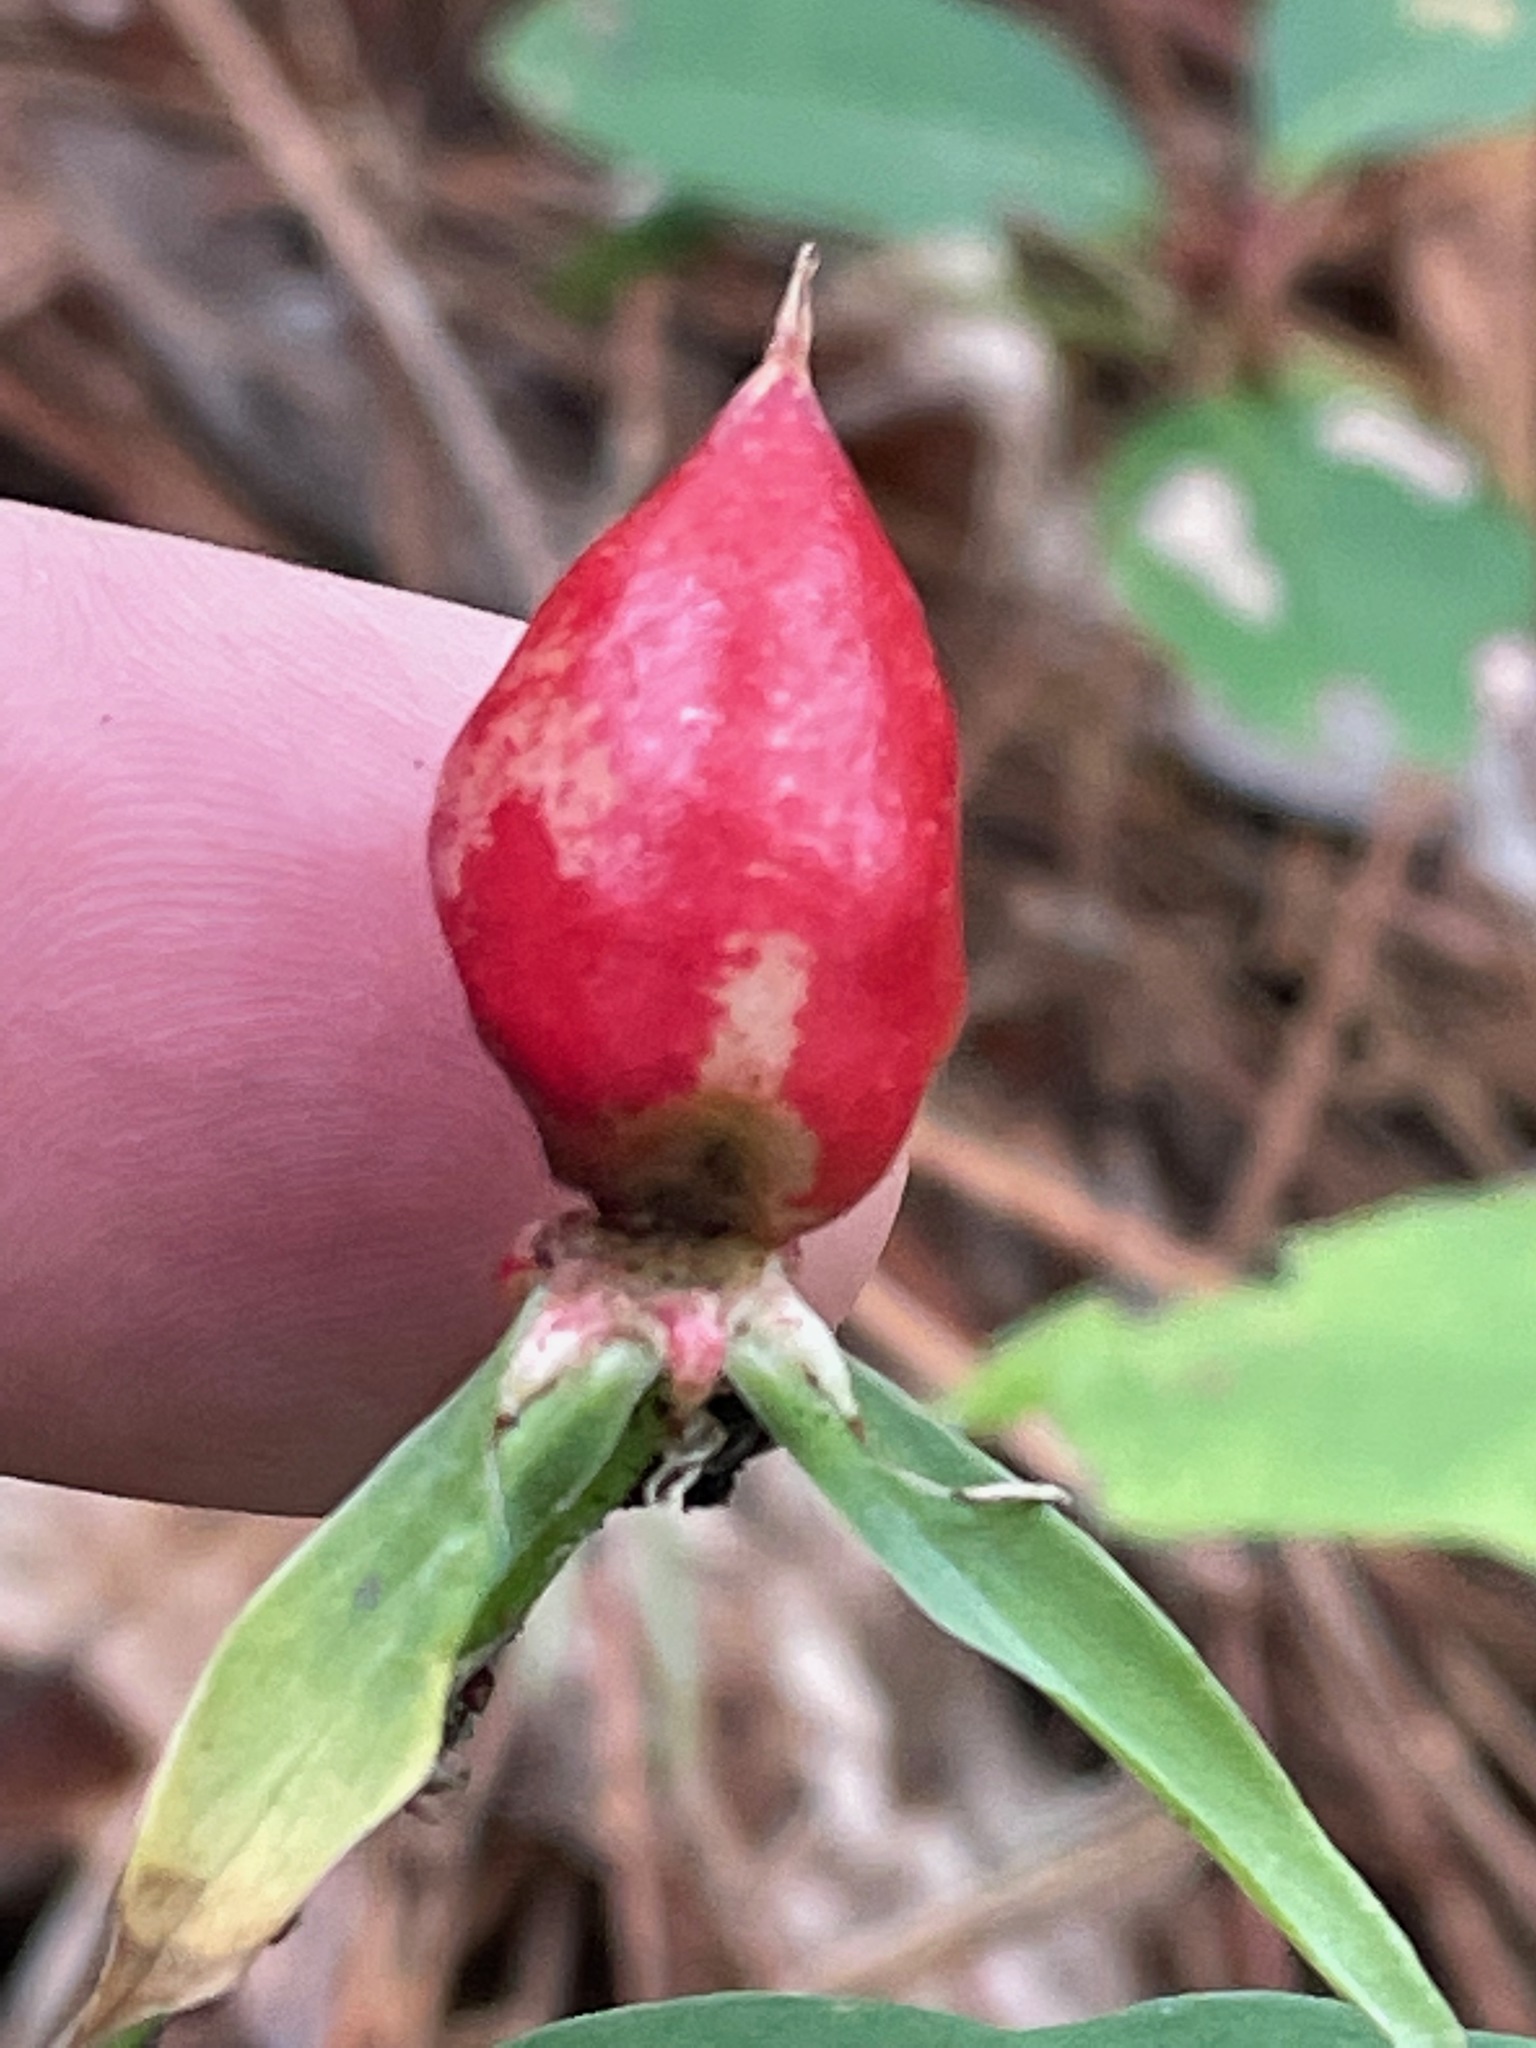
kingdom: Plantae
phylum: Tracheophyta
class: Liliopsida
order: Liliales
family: Melanthiaceae
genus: Trillium
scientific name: Trillium undulatum
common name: Paint trillium
